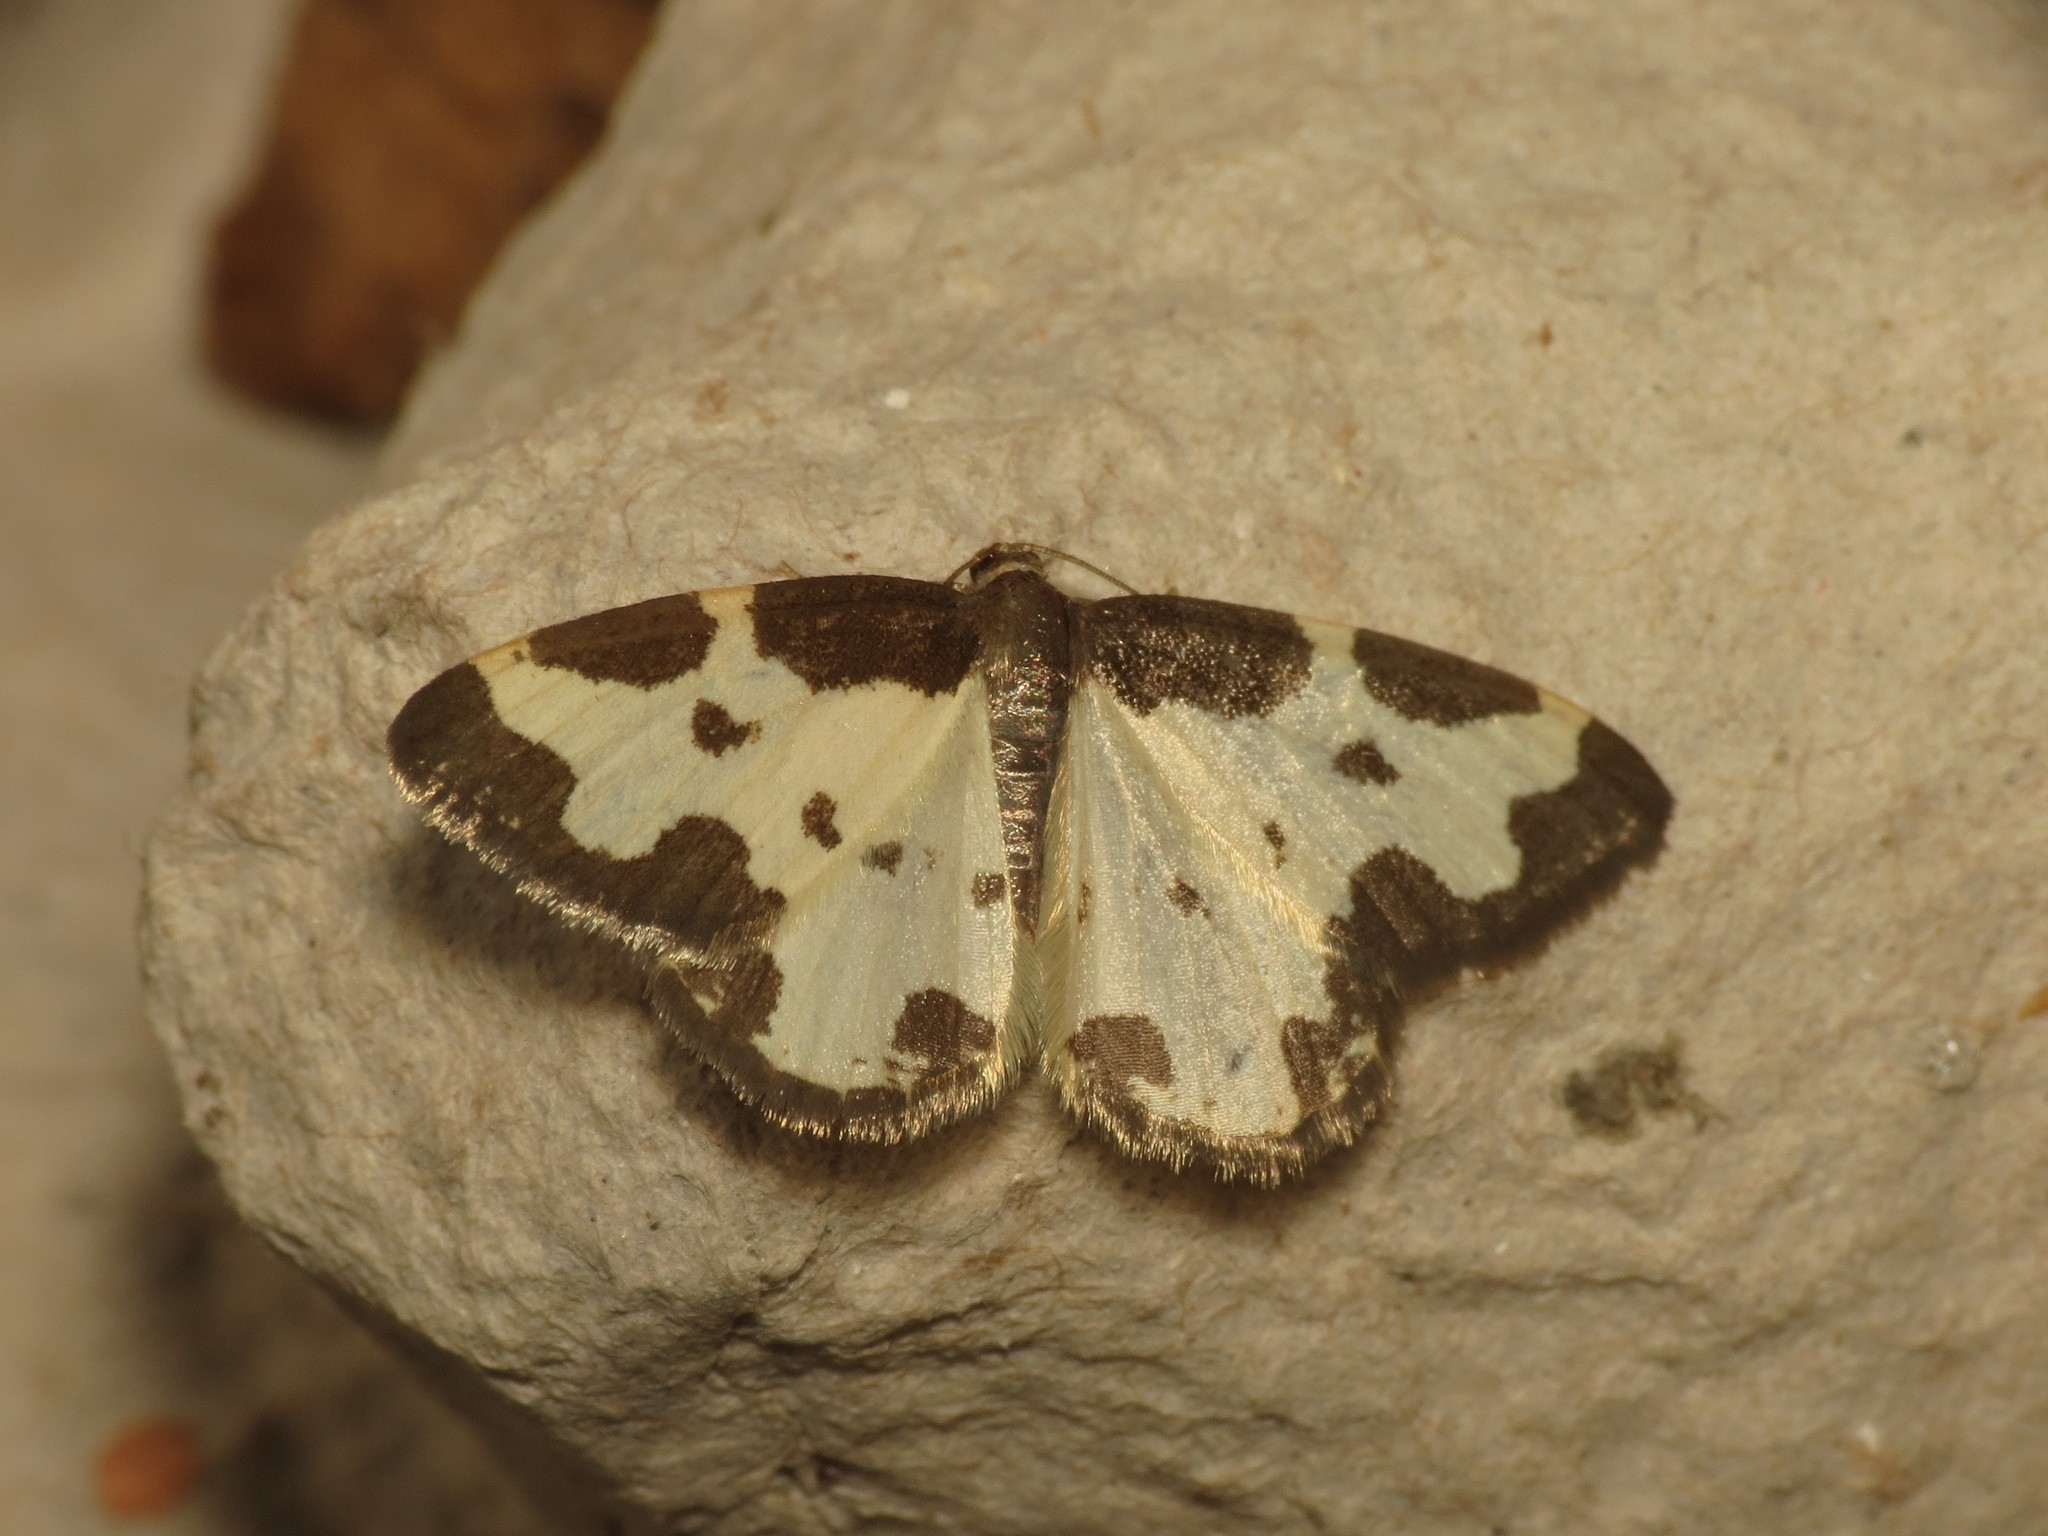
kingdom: Animalia
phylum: Arthropoda
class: Insecta
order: Lepidoptera
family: Geometridae
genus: Lomaspilis
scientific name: Lomaspilis marginata
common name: Clouded border
